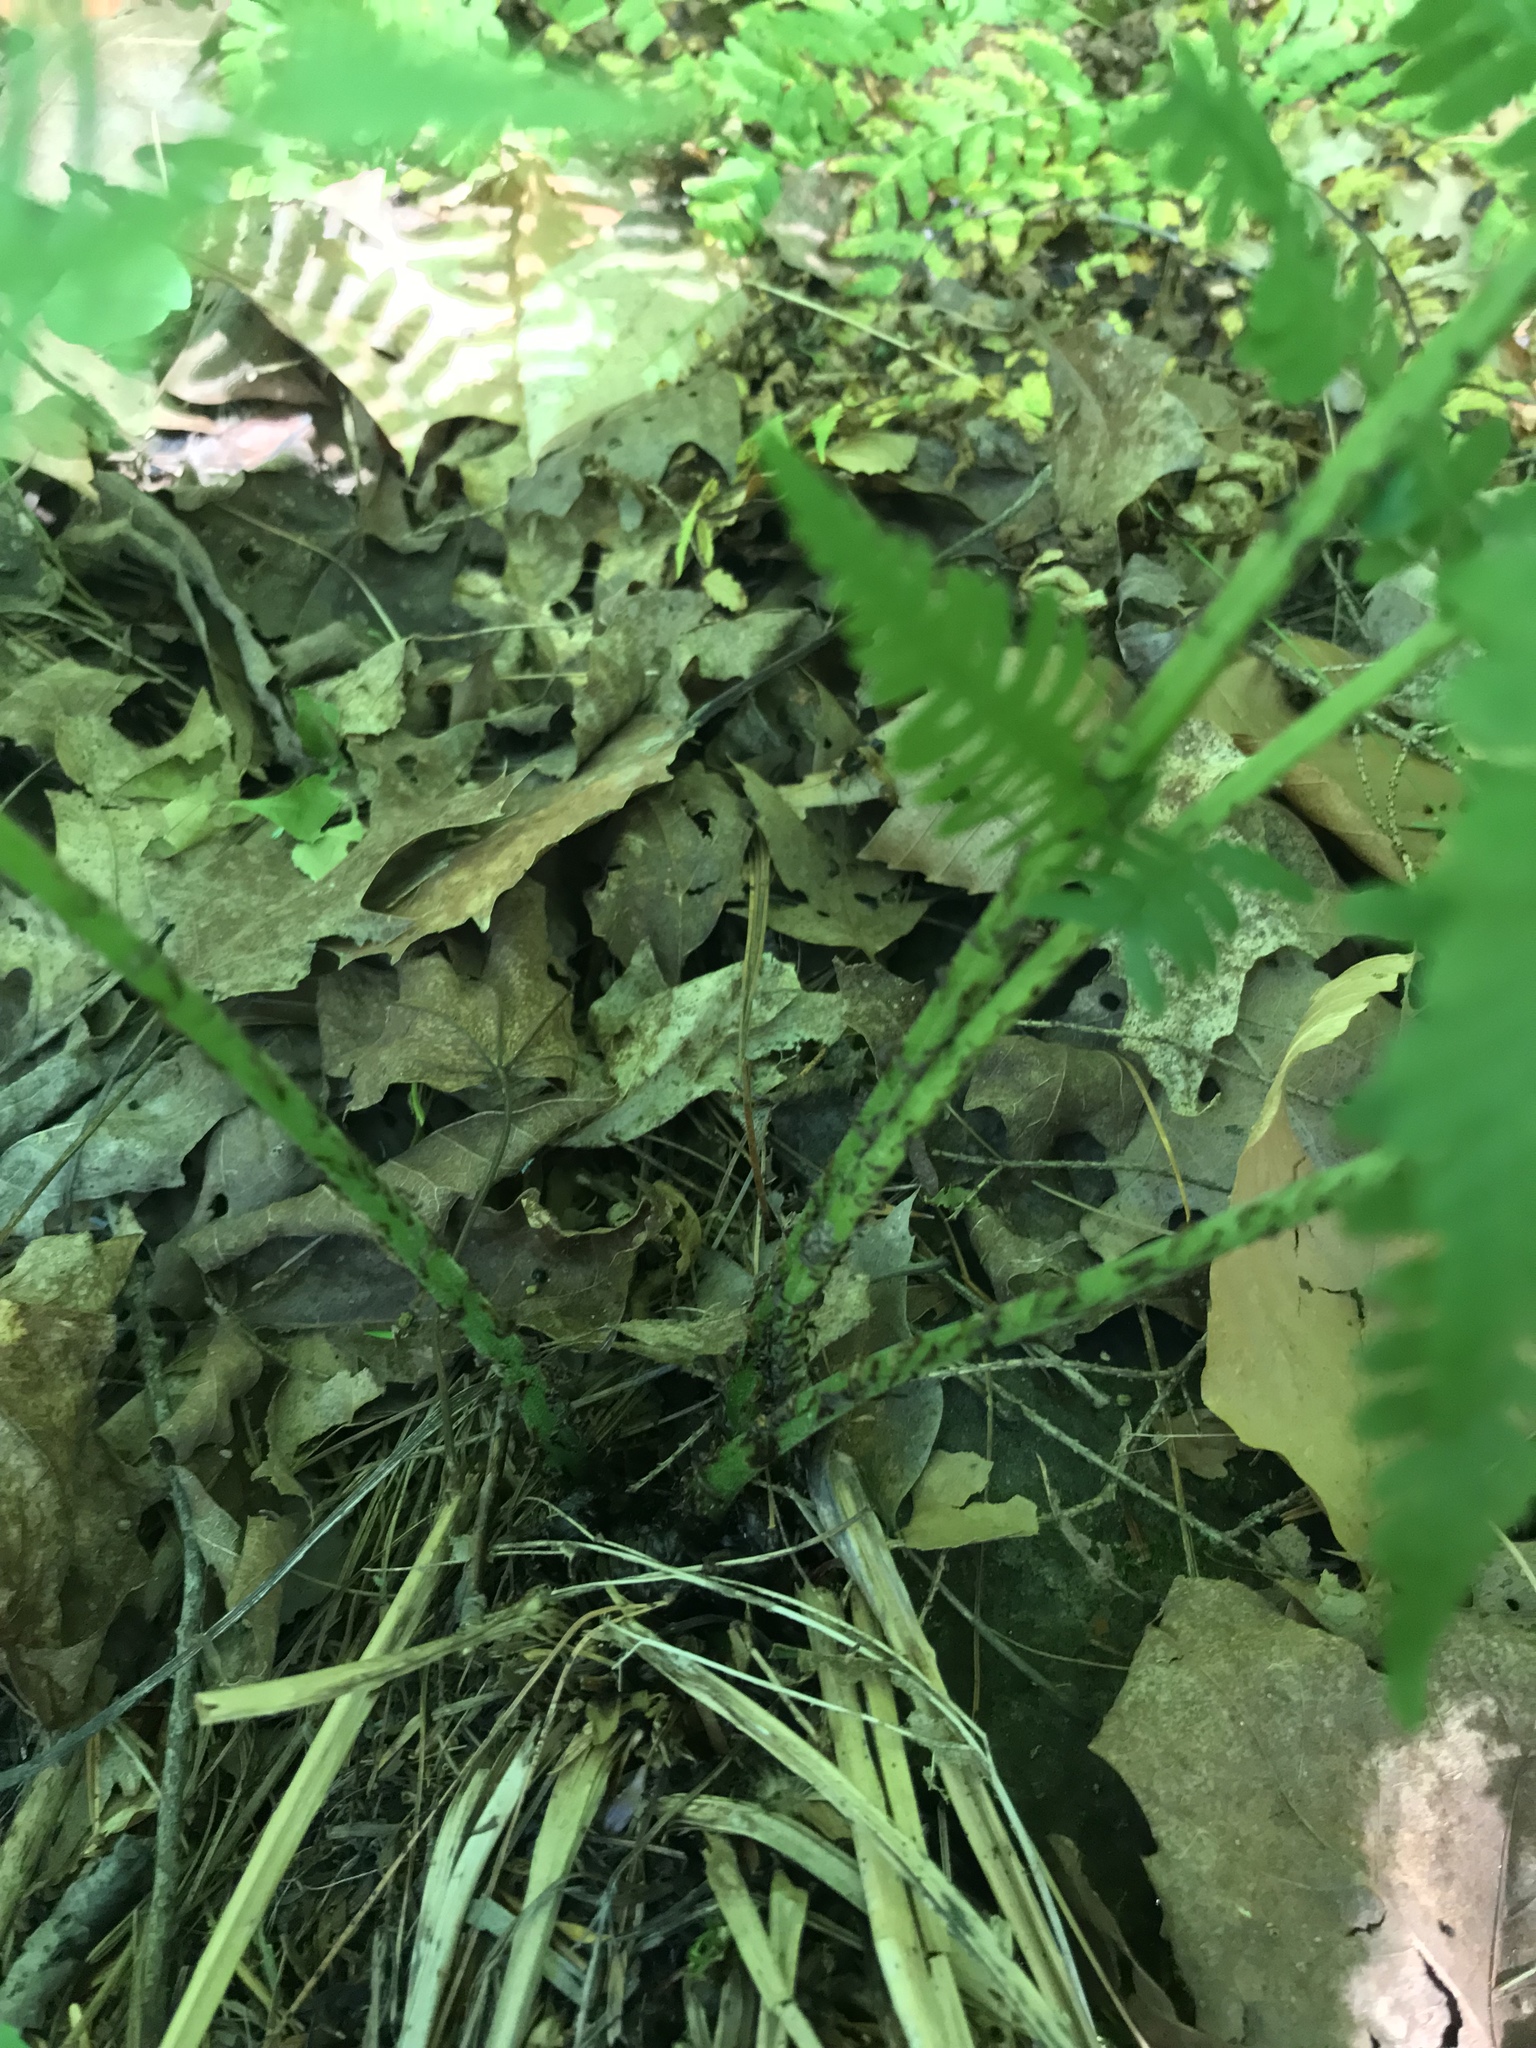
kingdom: Plantae
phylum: Tracheophyta
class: Polypodiopsida
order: Polypodiales
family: Athyriaceae
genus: Athyrium
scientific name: Athyrium angustum
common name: Northern lady fern
